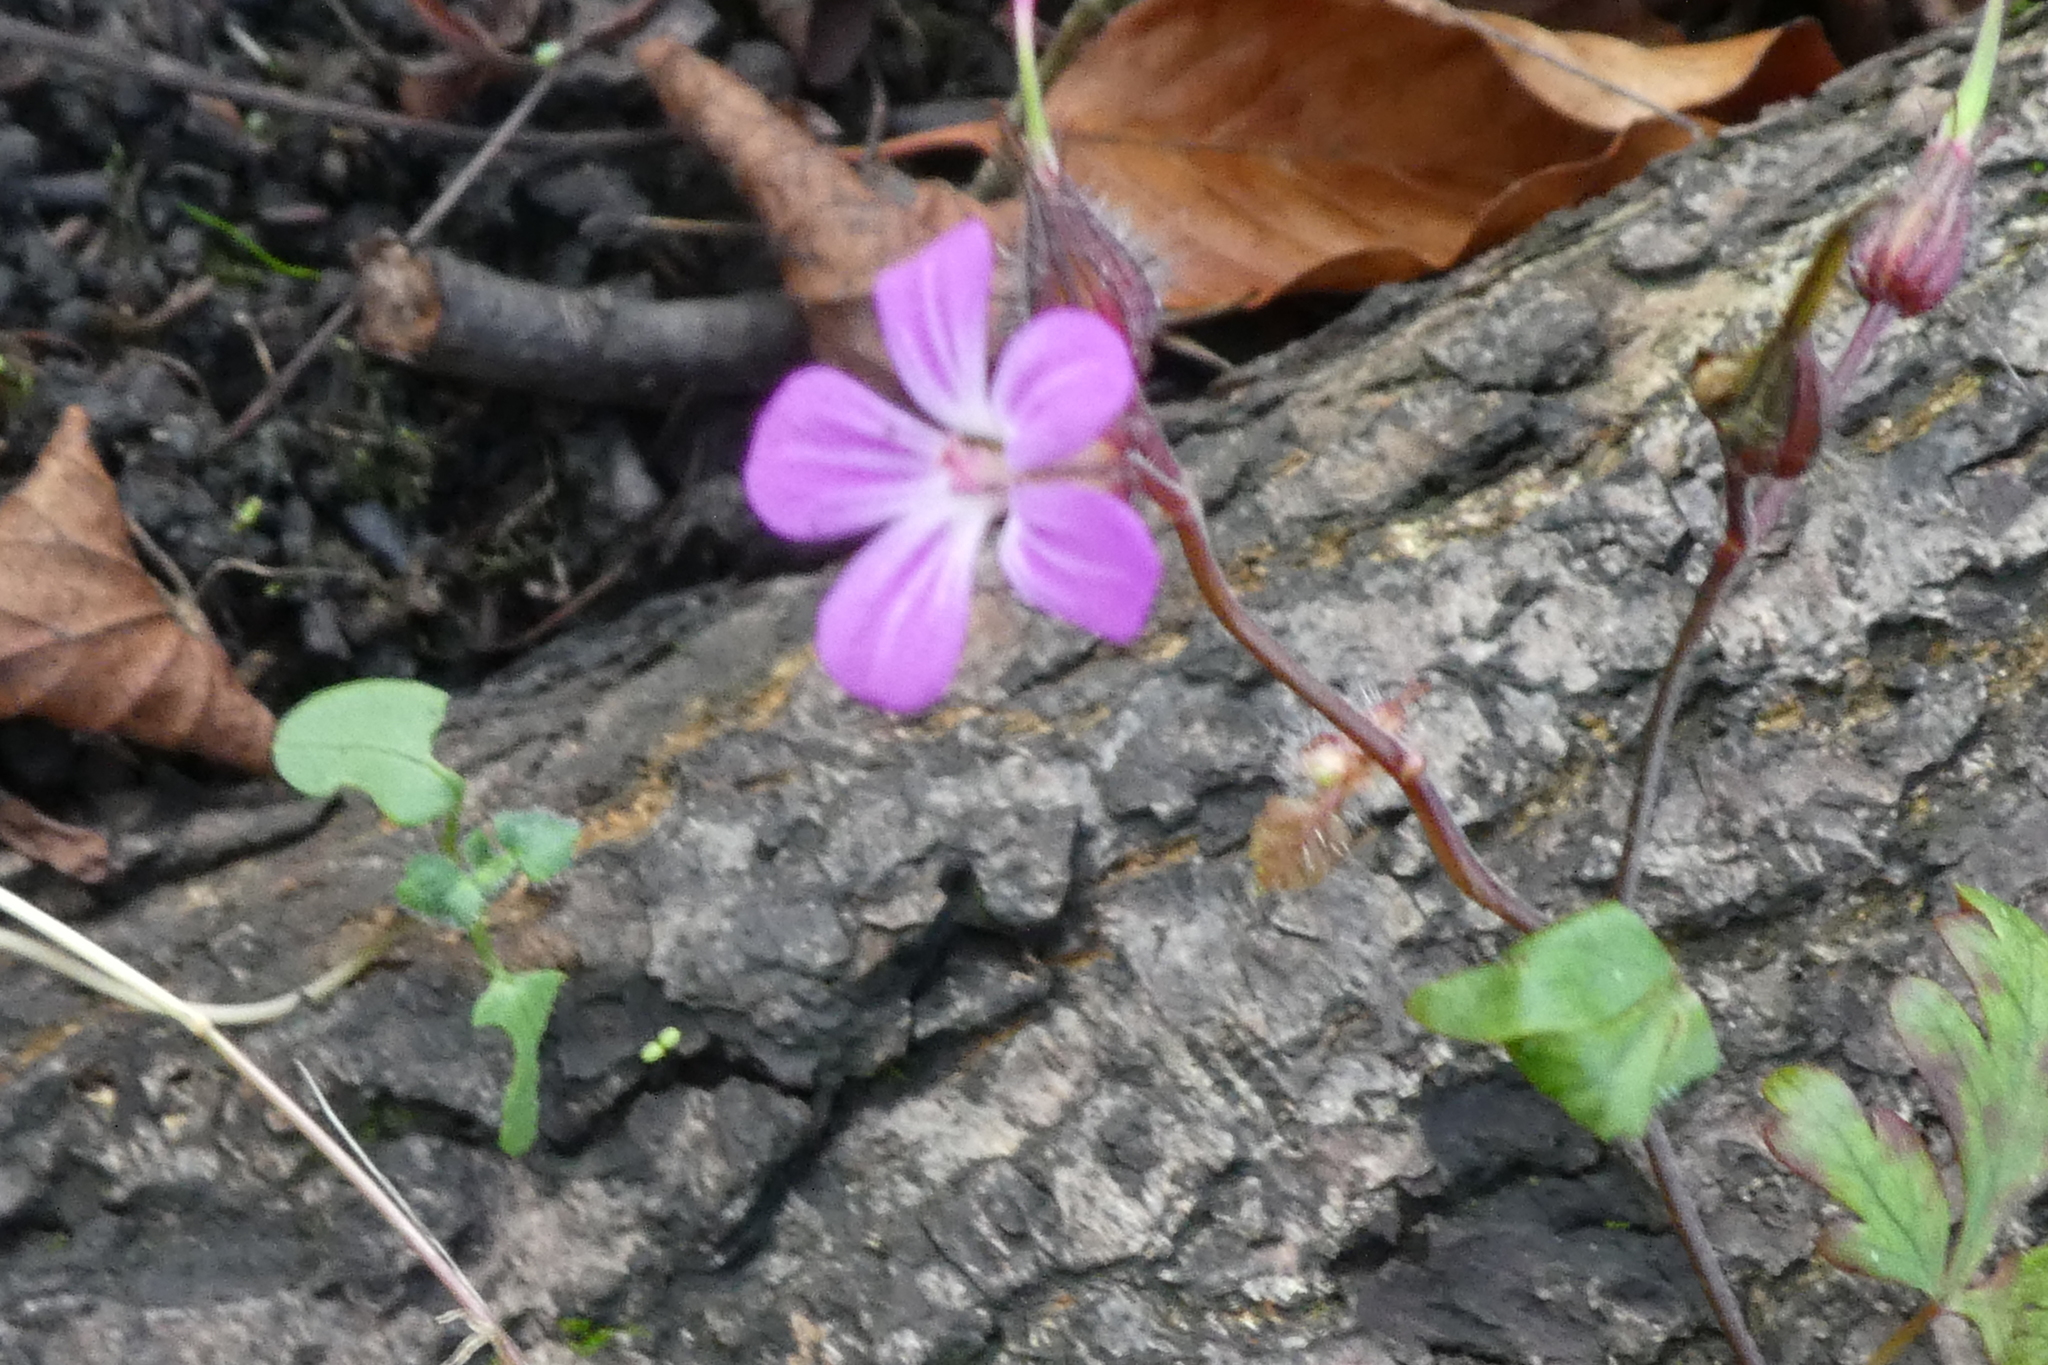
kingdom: Plantae
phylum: Tracheophyta
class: Magnoliopsida
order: Geraniales
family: Geraniaceae
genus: Geranium
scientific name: Geranium robertianum
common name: Herb-robert
